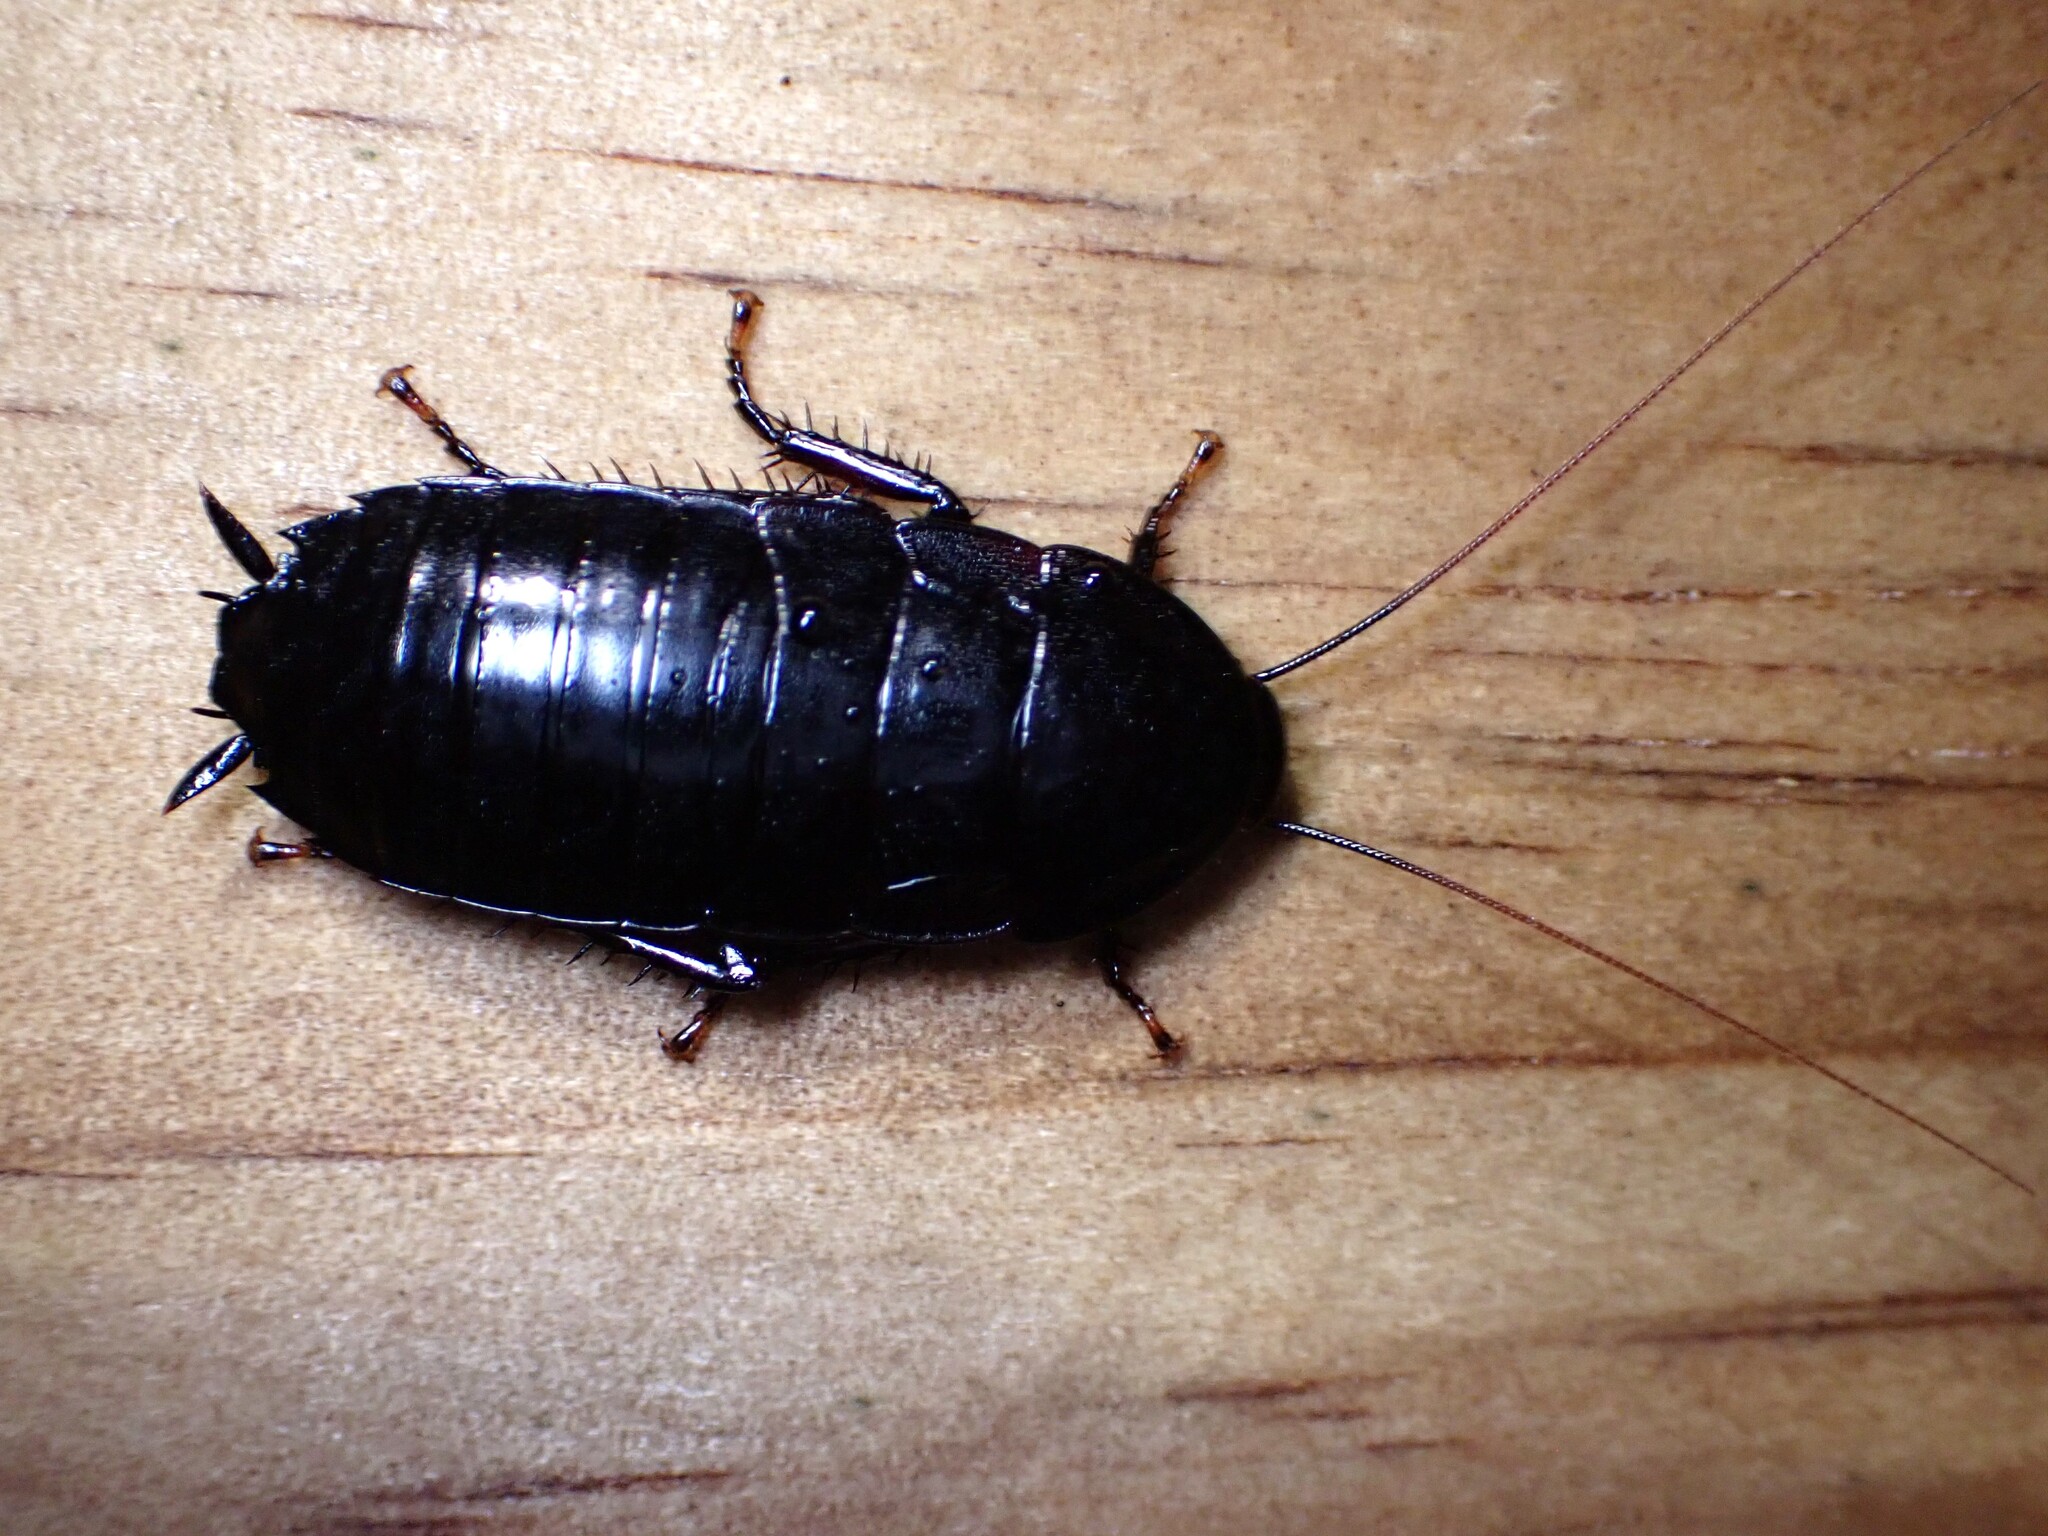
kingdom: Animalia
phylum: Arthropoda
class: Insecta
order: Blattodea
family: Blattidae
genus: Maoriblatta
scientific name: Maoriblatta novaeseelandiae
